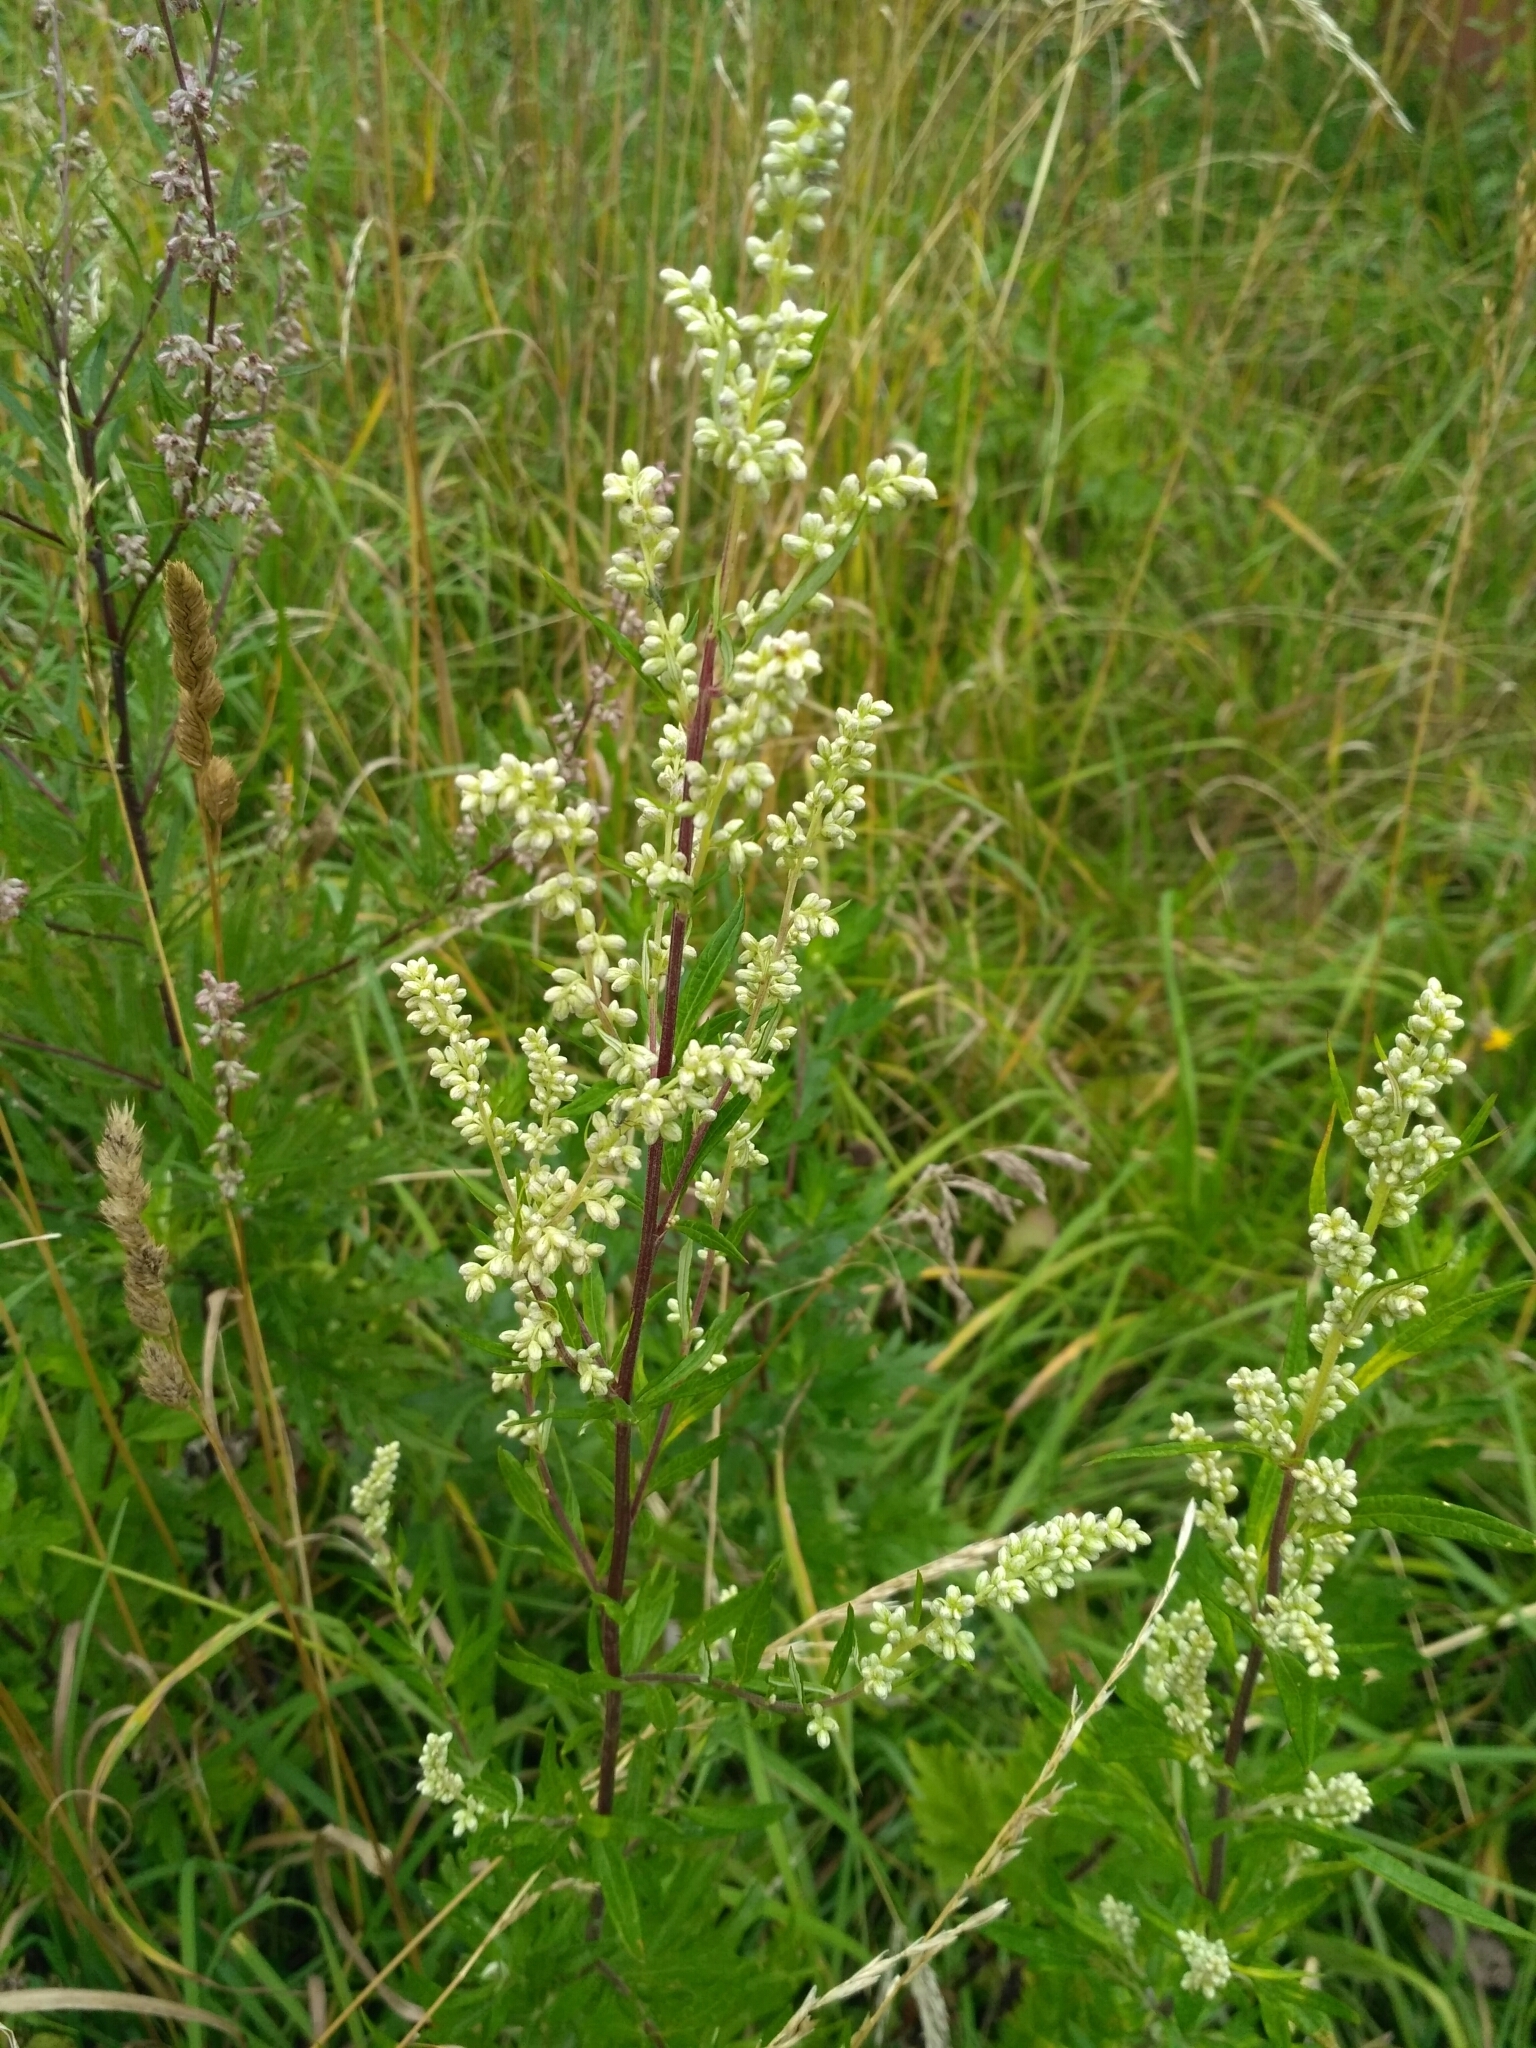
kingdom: Plantae
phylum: Tracheophyta
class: Magnoliopsida
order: Asterales
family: Asteraceae
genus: Artemisia
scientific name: Artemisia vulgaris
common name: Mugwort
